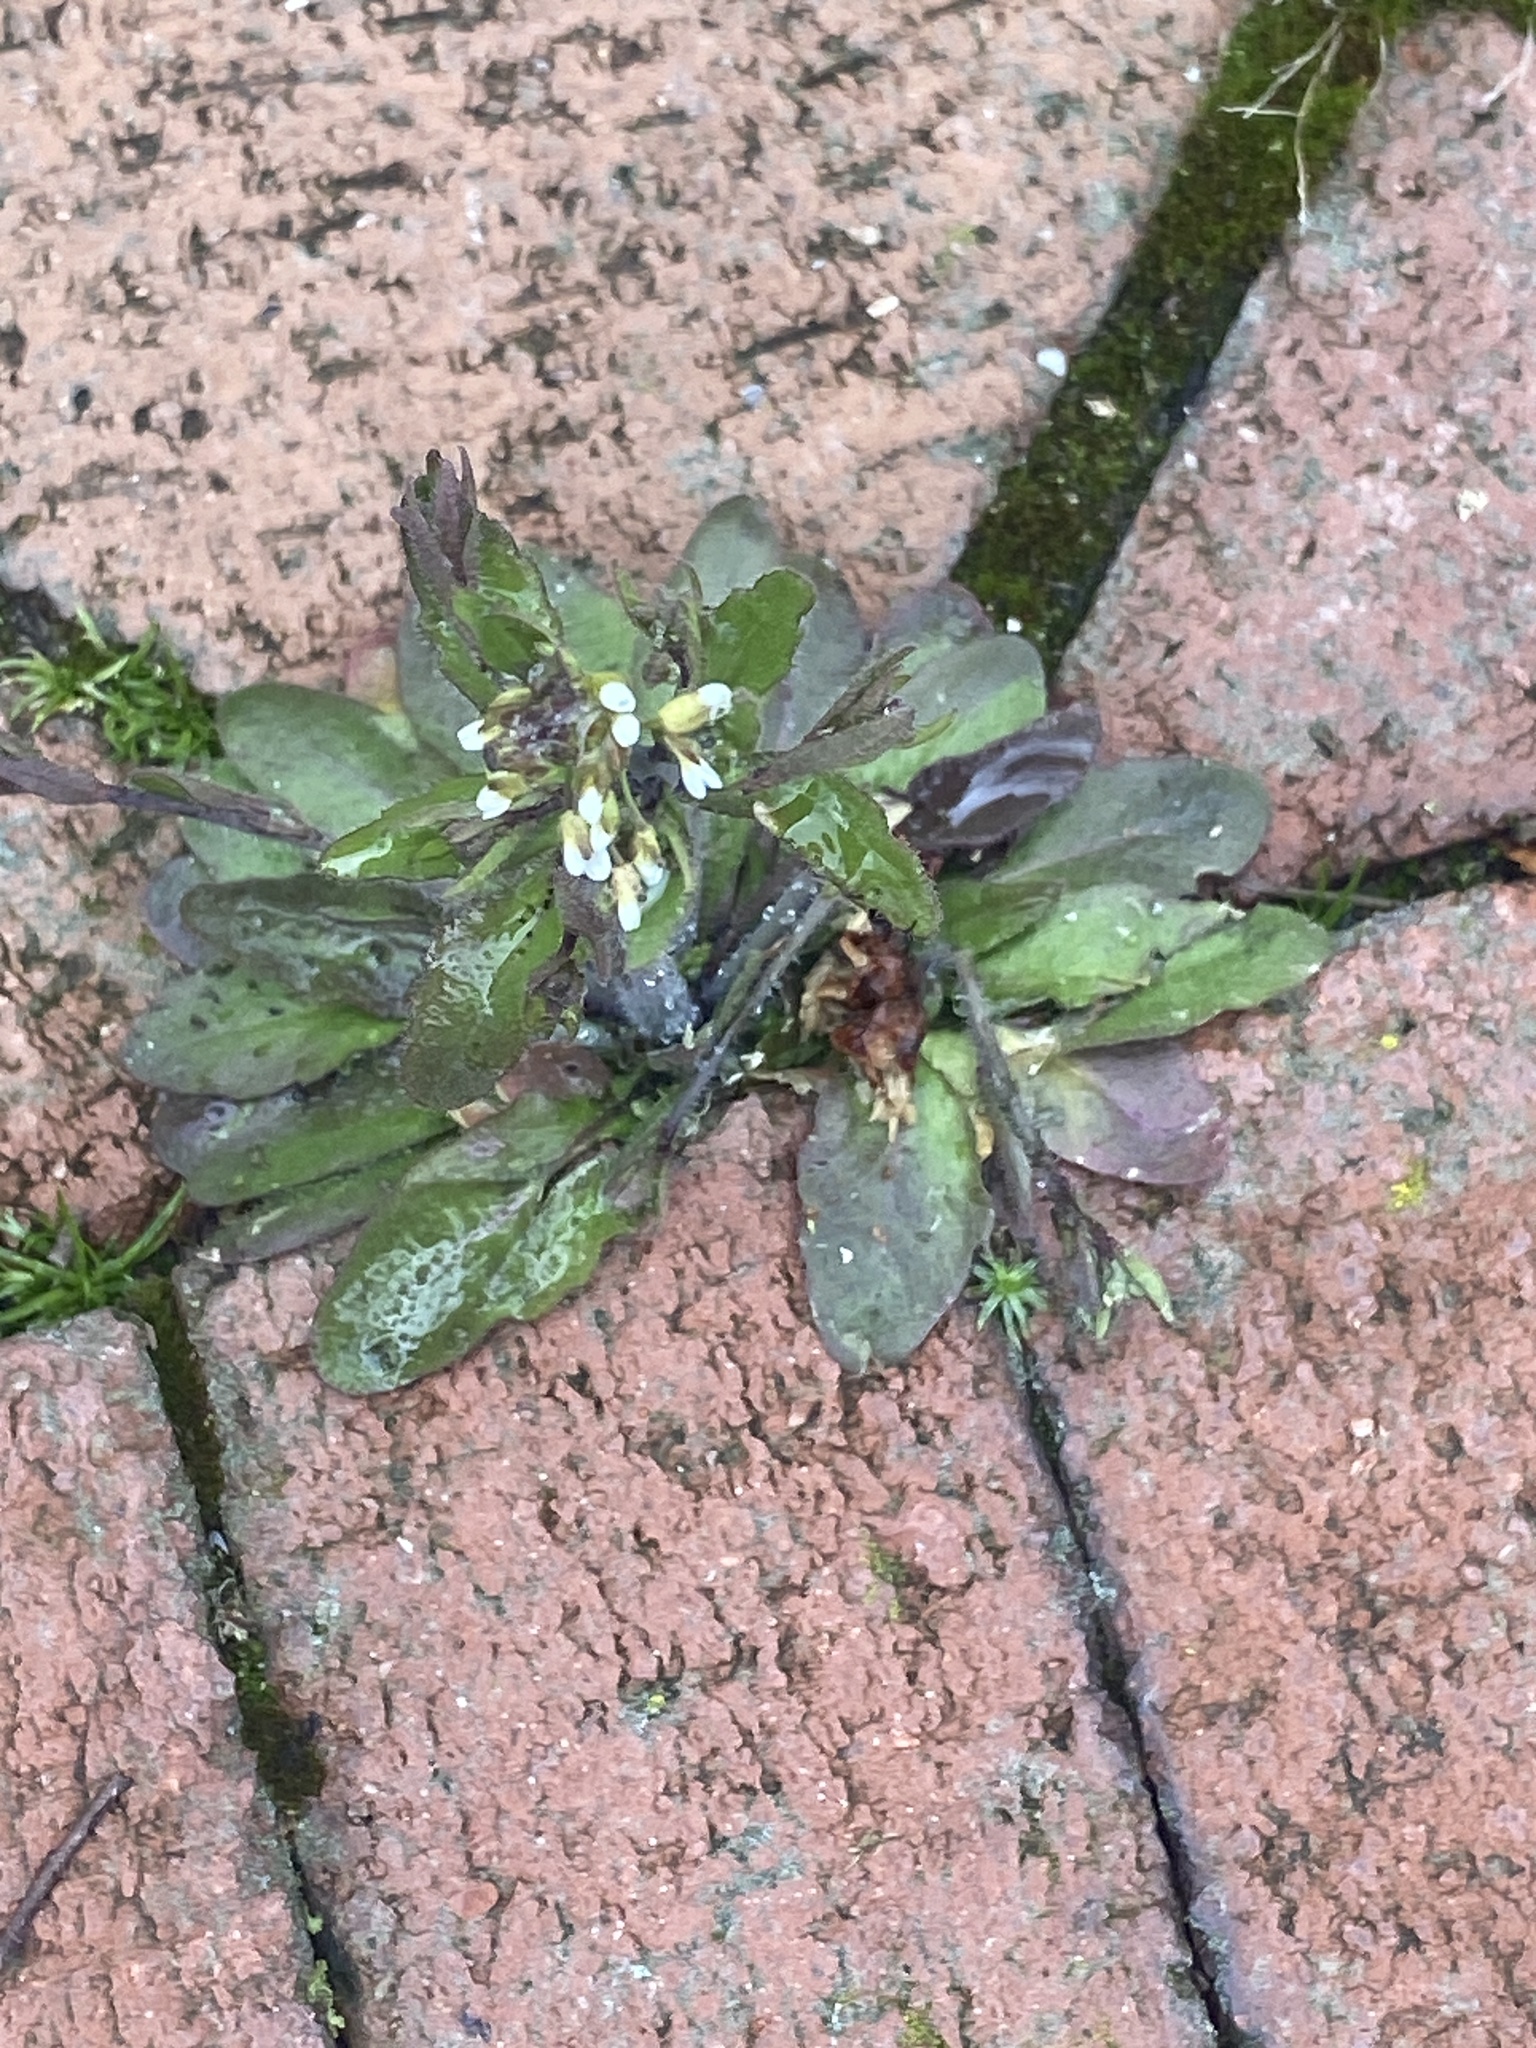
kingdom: Plantae
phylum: Tracheophyta
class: Magnoliopsida
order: Brassicales
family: Brassicaceae
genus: Arabidopsis
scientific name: Arabidopsis thaliana
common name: Thale cress
